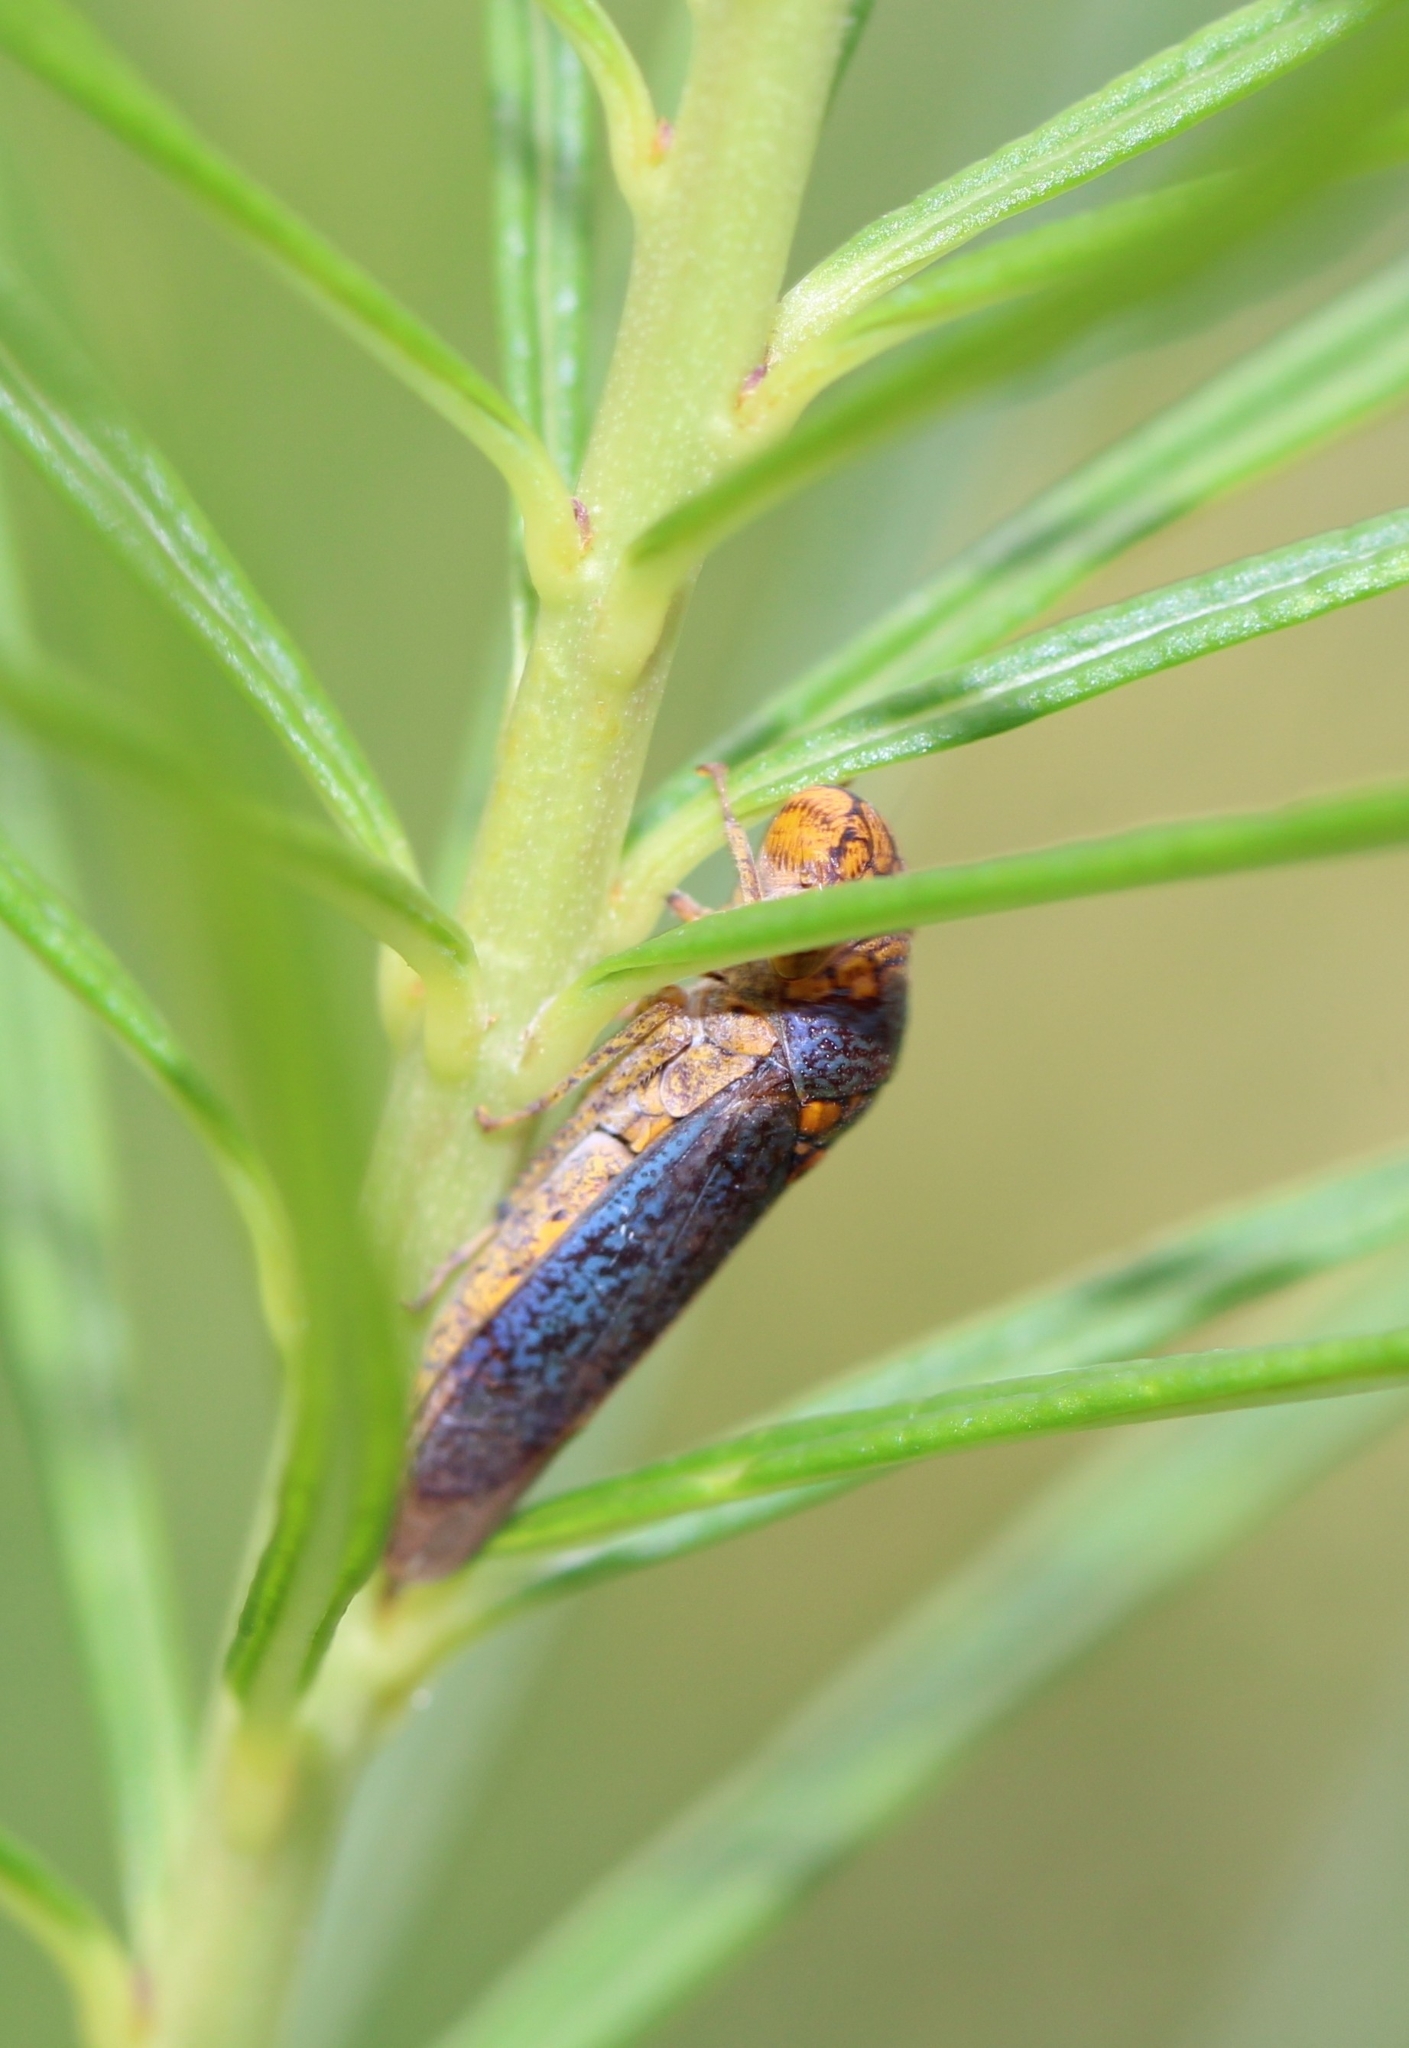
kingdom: Animalia
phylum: Arthropoda
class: Insecta
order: Hemiptera
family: Cicadellidae
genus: Oncometopia
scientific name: Oncometopia orbona
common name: Broad-headed sharpshooter
